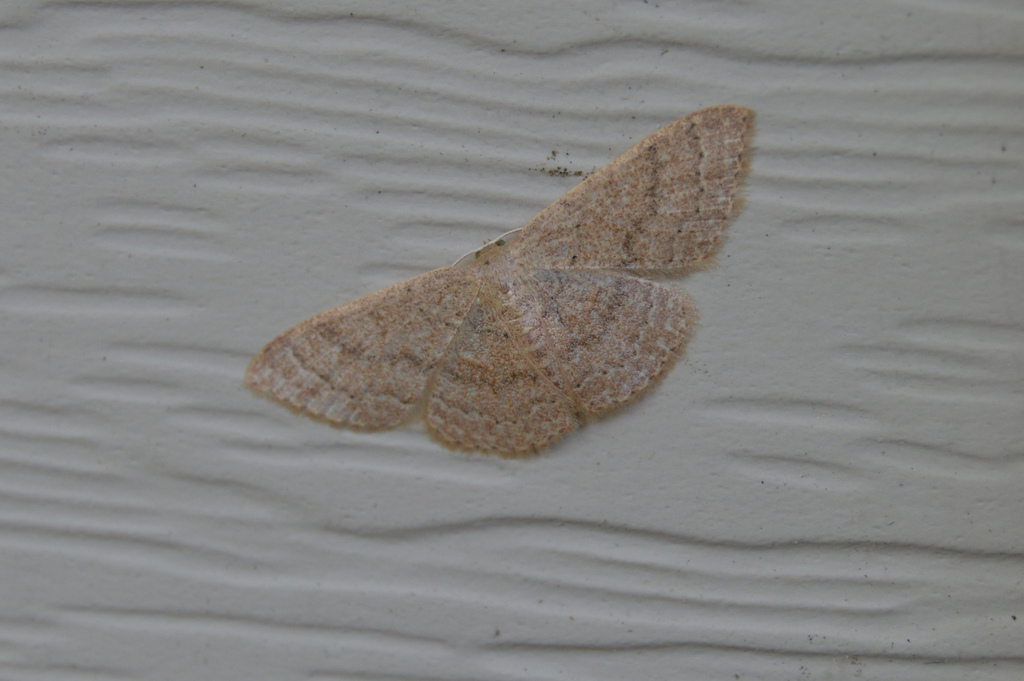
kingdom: Animalia
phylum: Arthropoda
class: Insecta
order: Lepidoptera
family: Geometridae
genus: Pleuroprucha
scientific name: Pleuroprucha insulsaria
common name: Common tan wave
